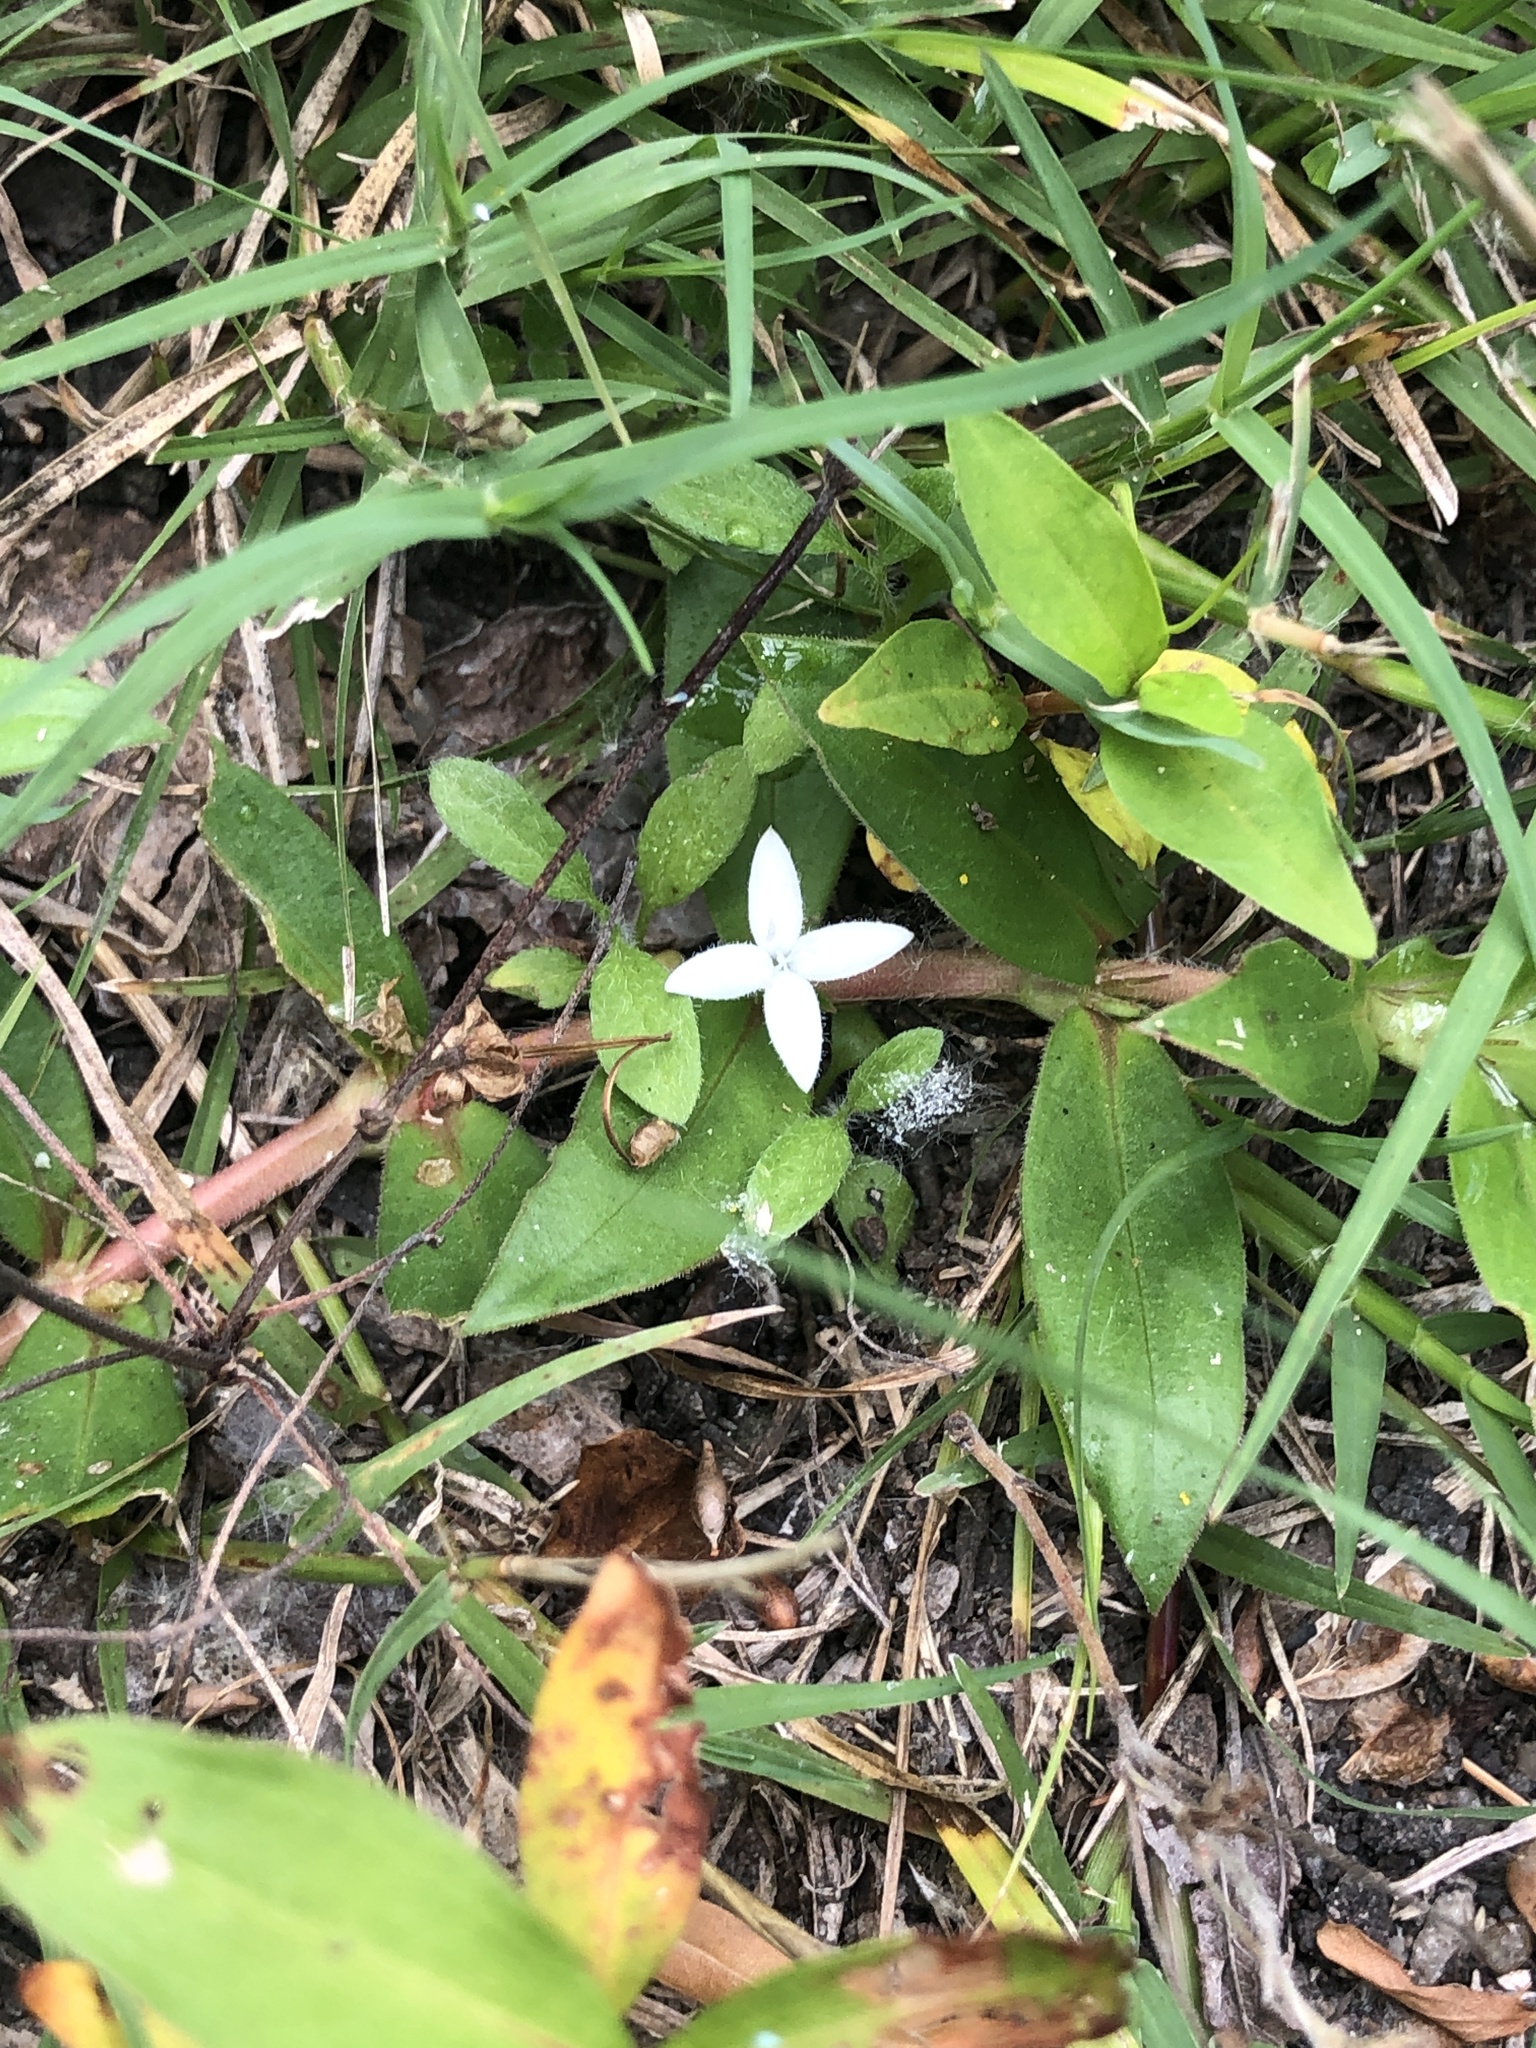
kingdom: Plantae
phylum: Tracheophyta
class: Magnoliopsida
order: Gentianales
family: Rubiaceae
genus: Diodia
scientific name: Diodia virginiana
